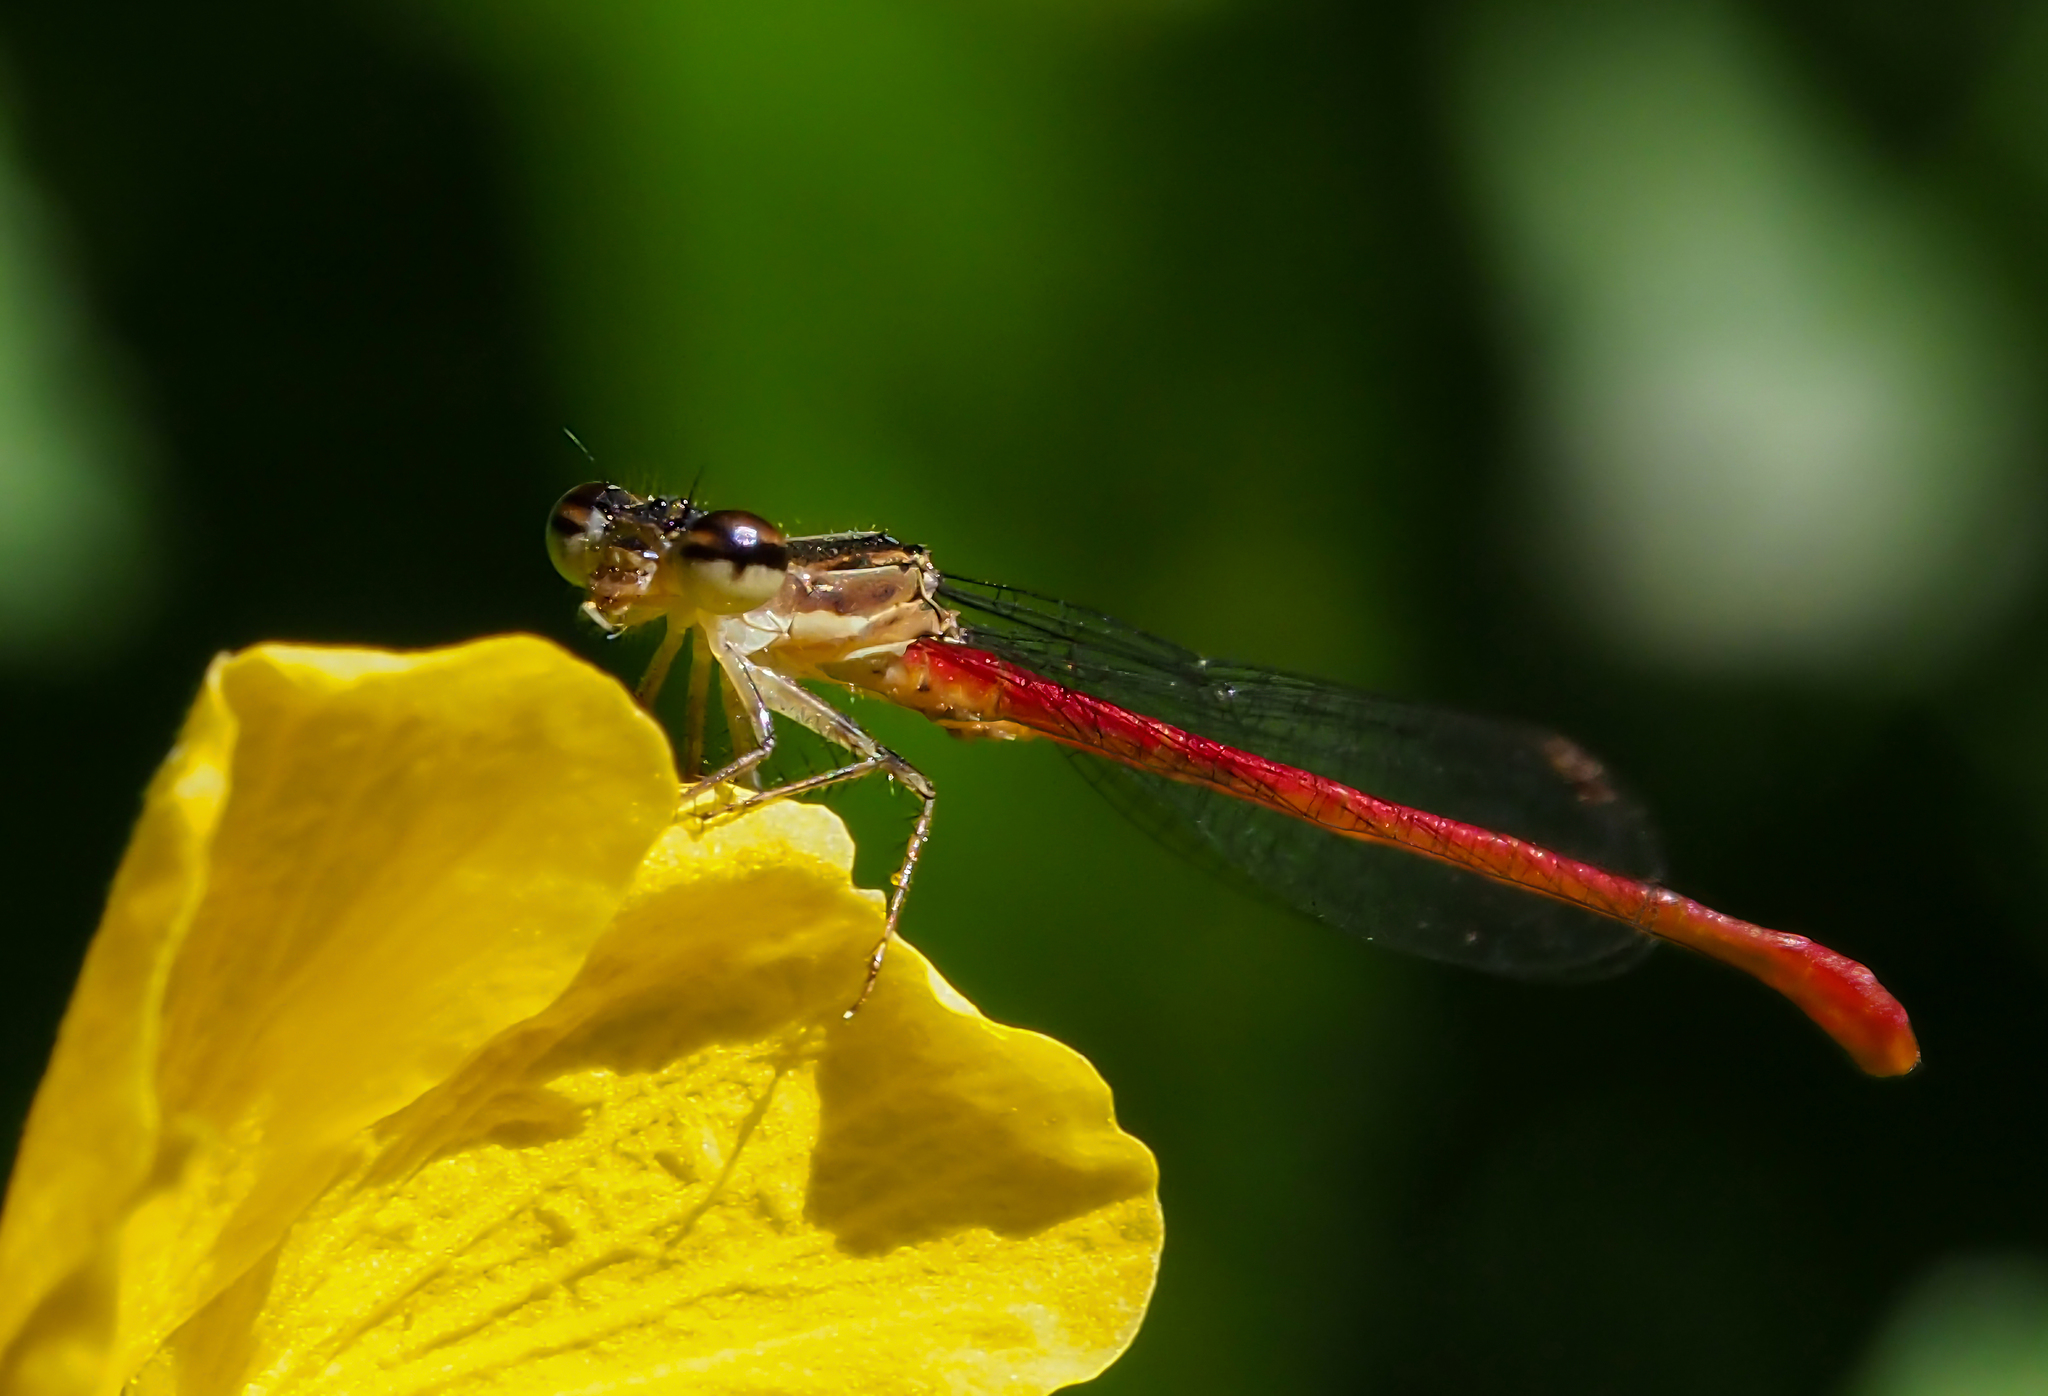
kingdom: Animalia
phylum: Arthropoda
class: Insecta
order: Odonata
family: Coenagrionidae
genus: Telebasis
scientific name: Telebasis willinki
